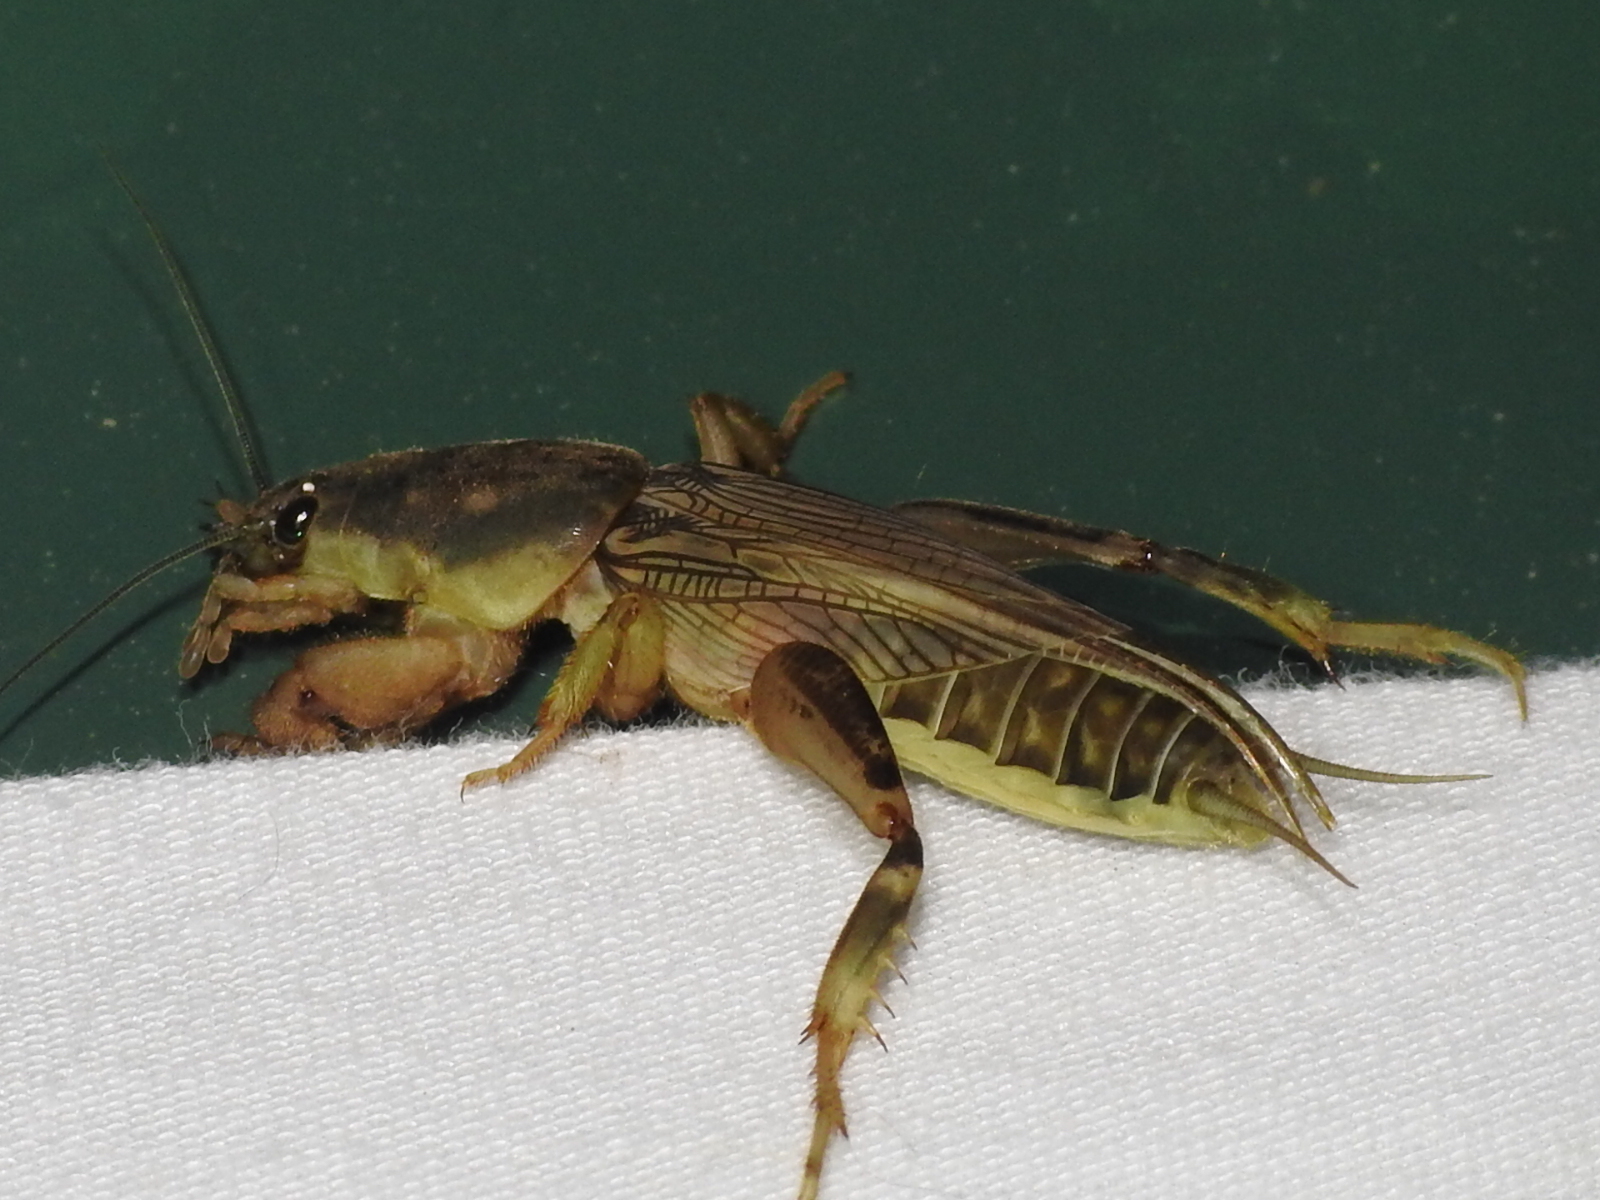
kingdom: Animalia
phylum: Arthropoda
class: Insecta
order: Orthoptera
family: Gryllotalpidae
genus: Neoscapteriscus
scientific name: Neoscapteriscus borellii
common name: Southern mole cricket
